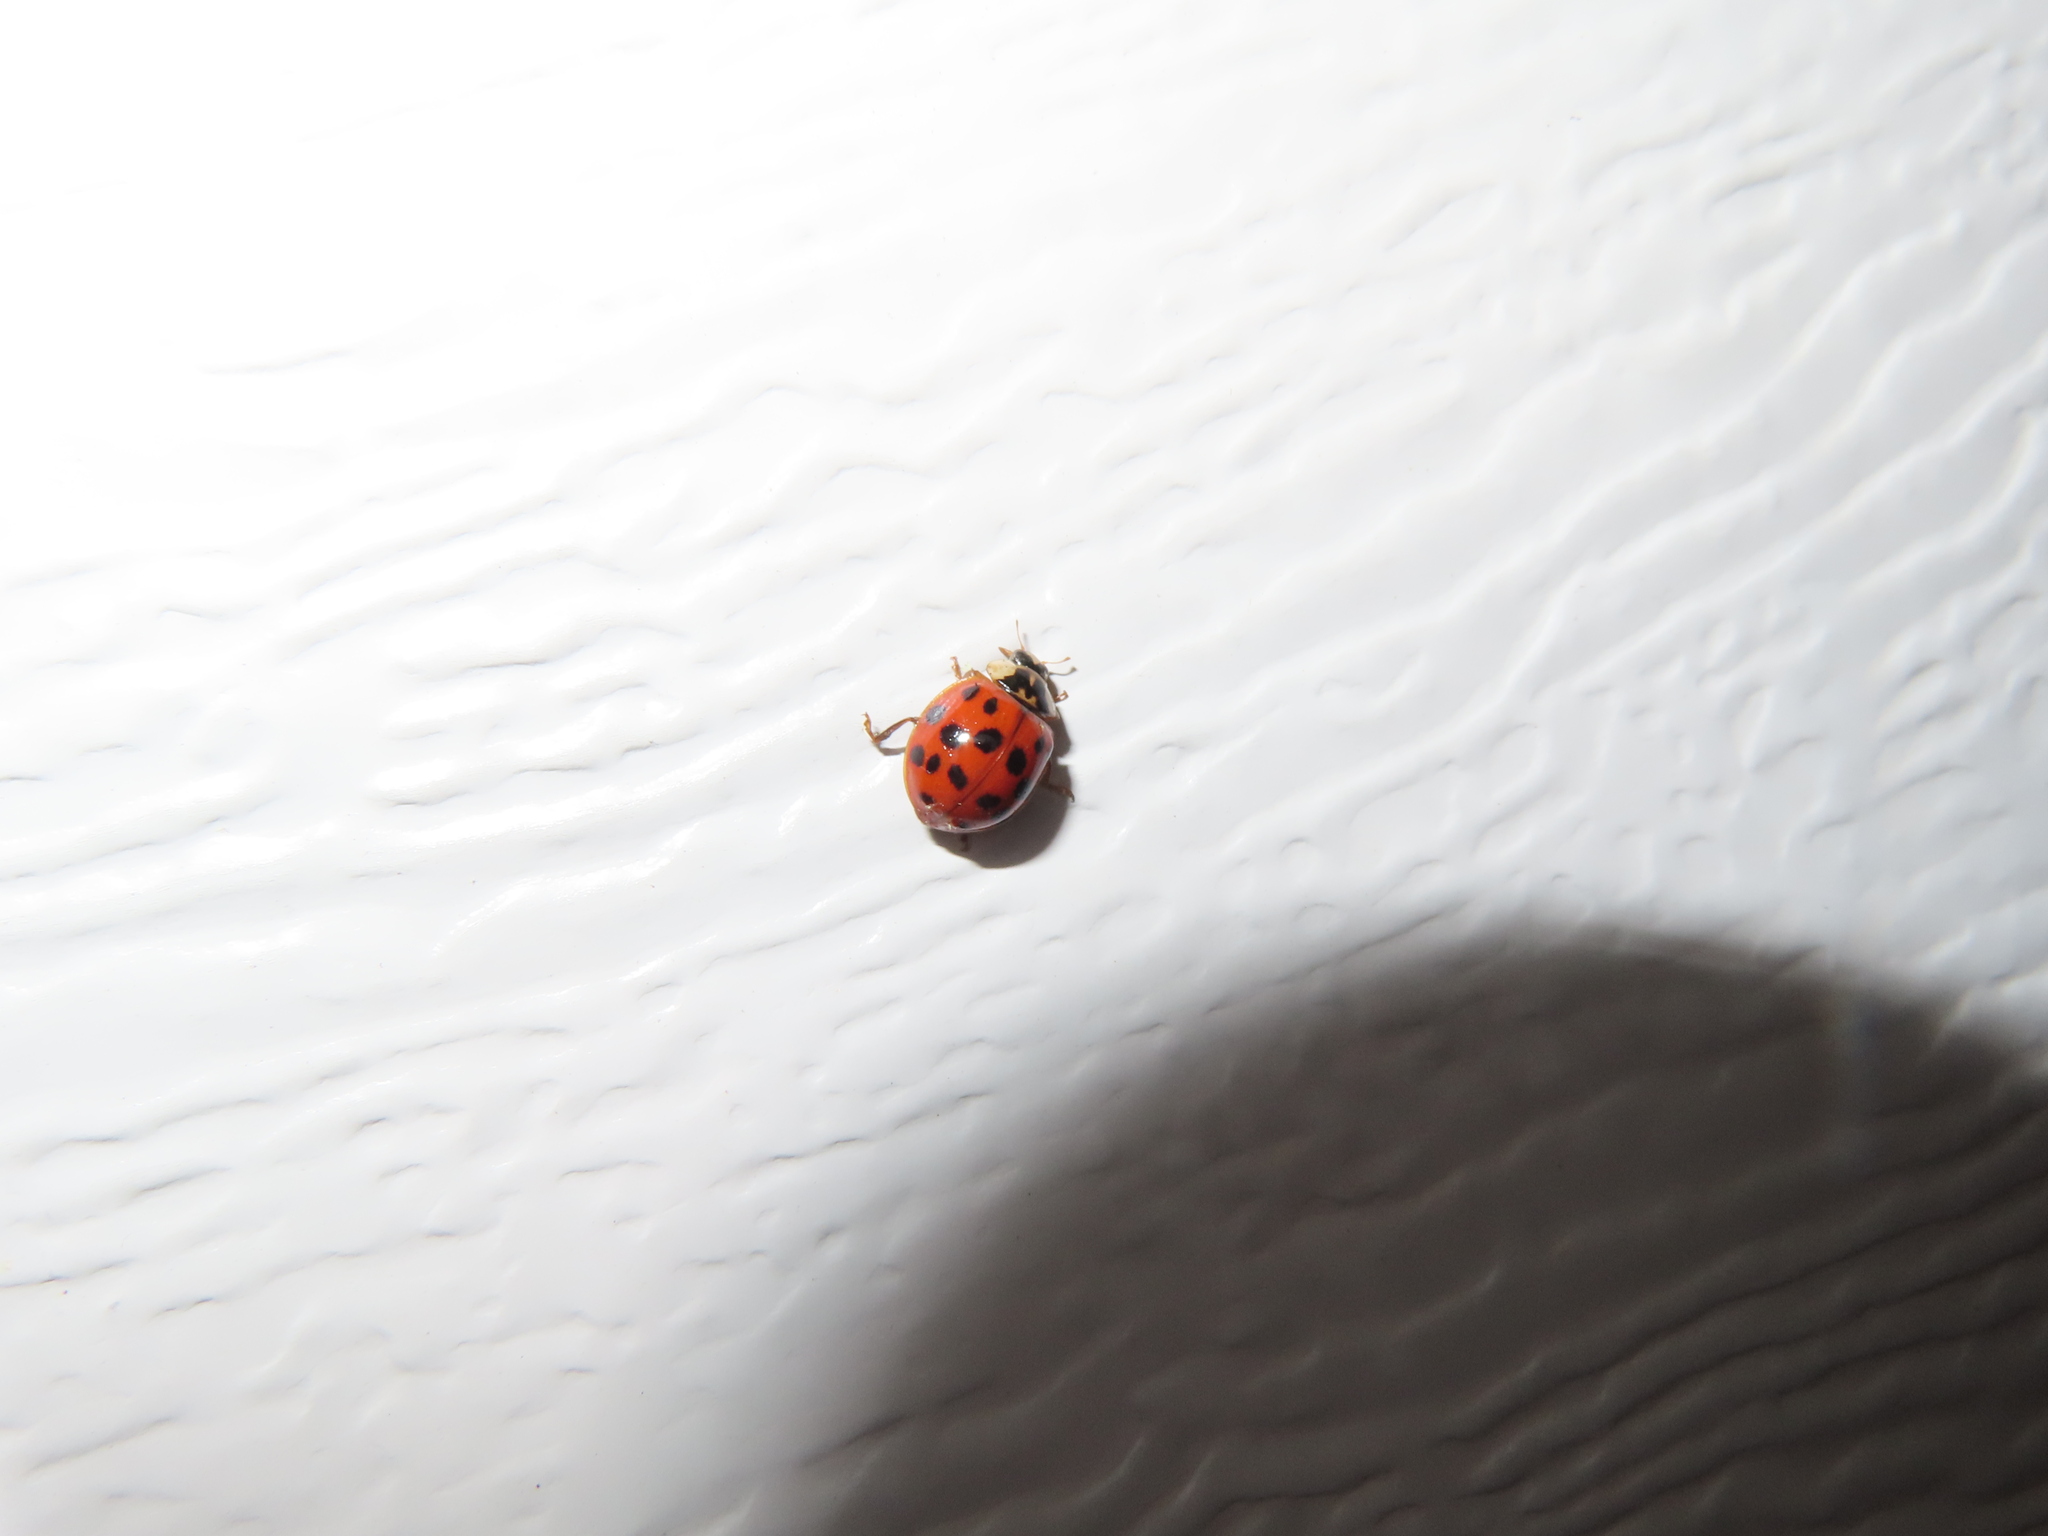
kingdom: Animalia
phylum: Arthropoda
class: Insecta
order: Coleoptera
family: Coccinellidae
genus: Harmonia
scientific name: Harmonia axyridis
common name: Harlequin ladybird
